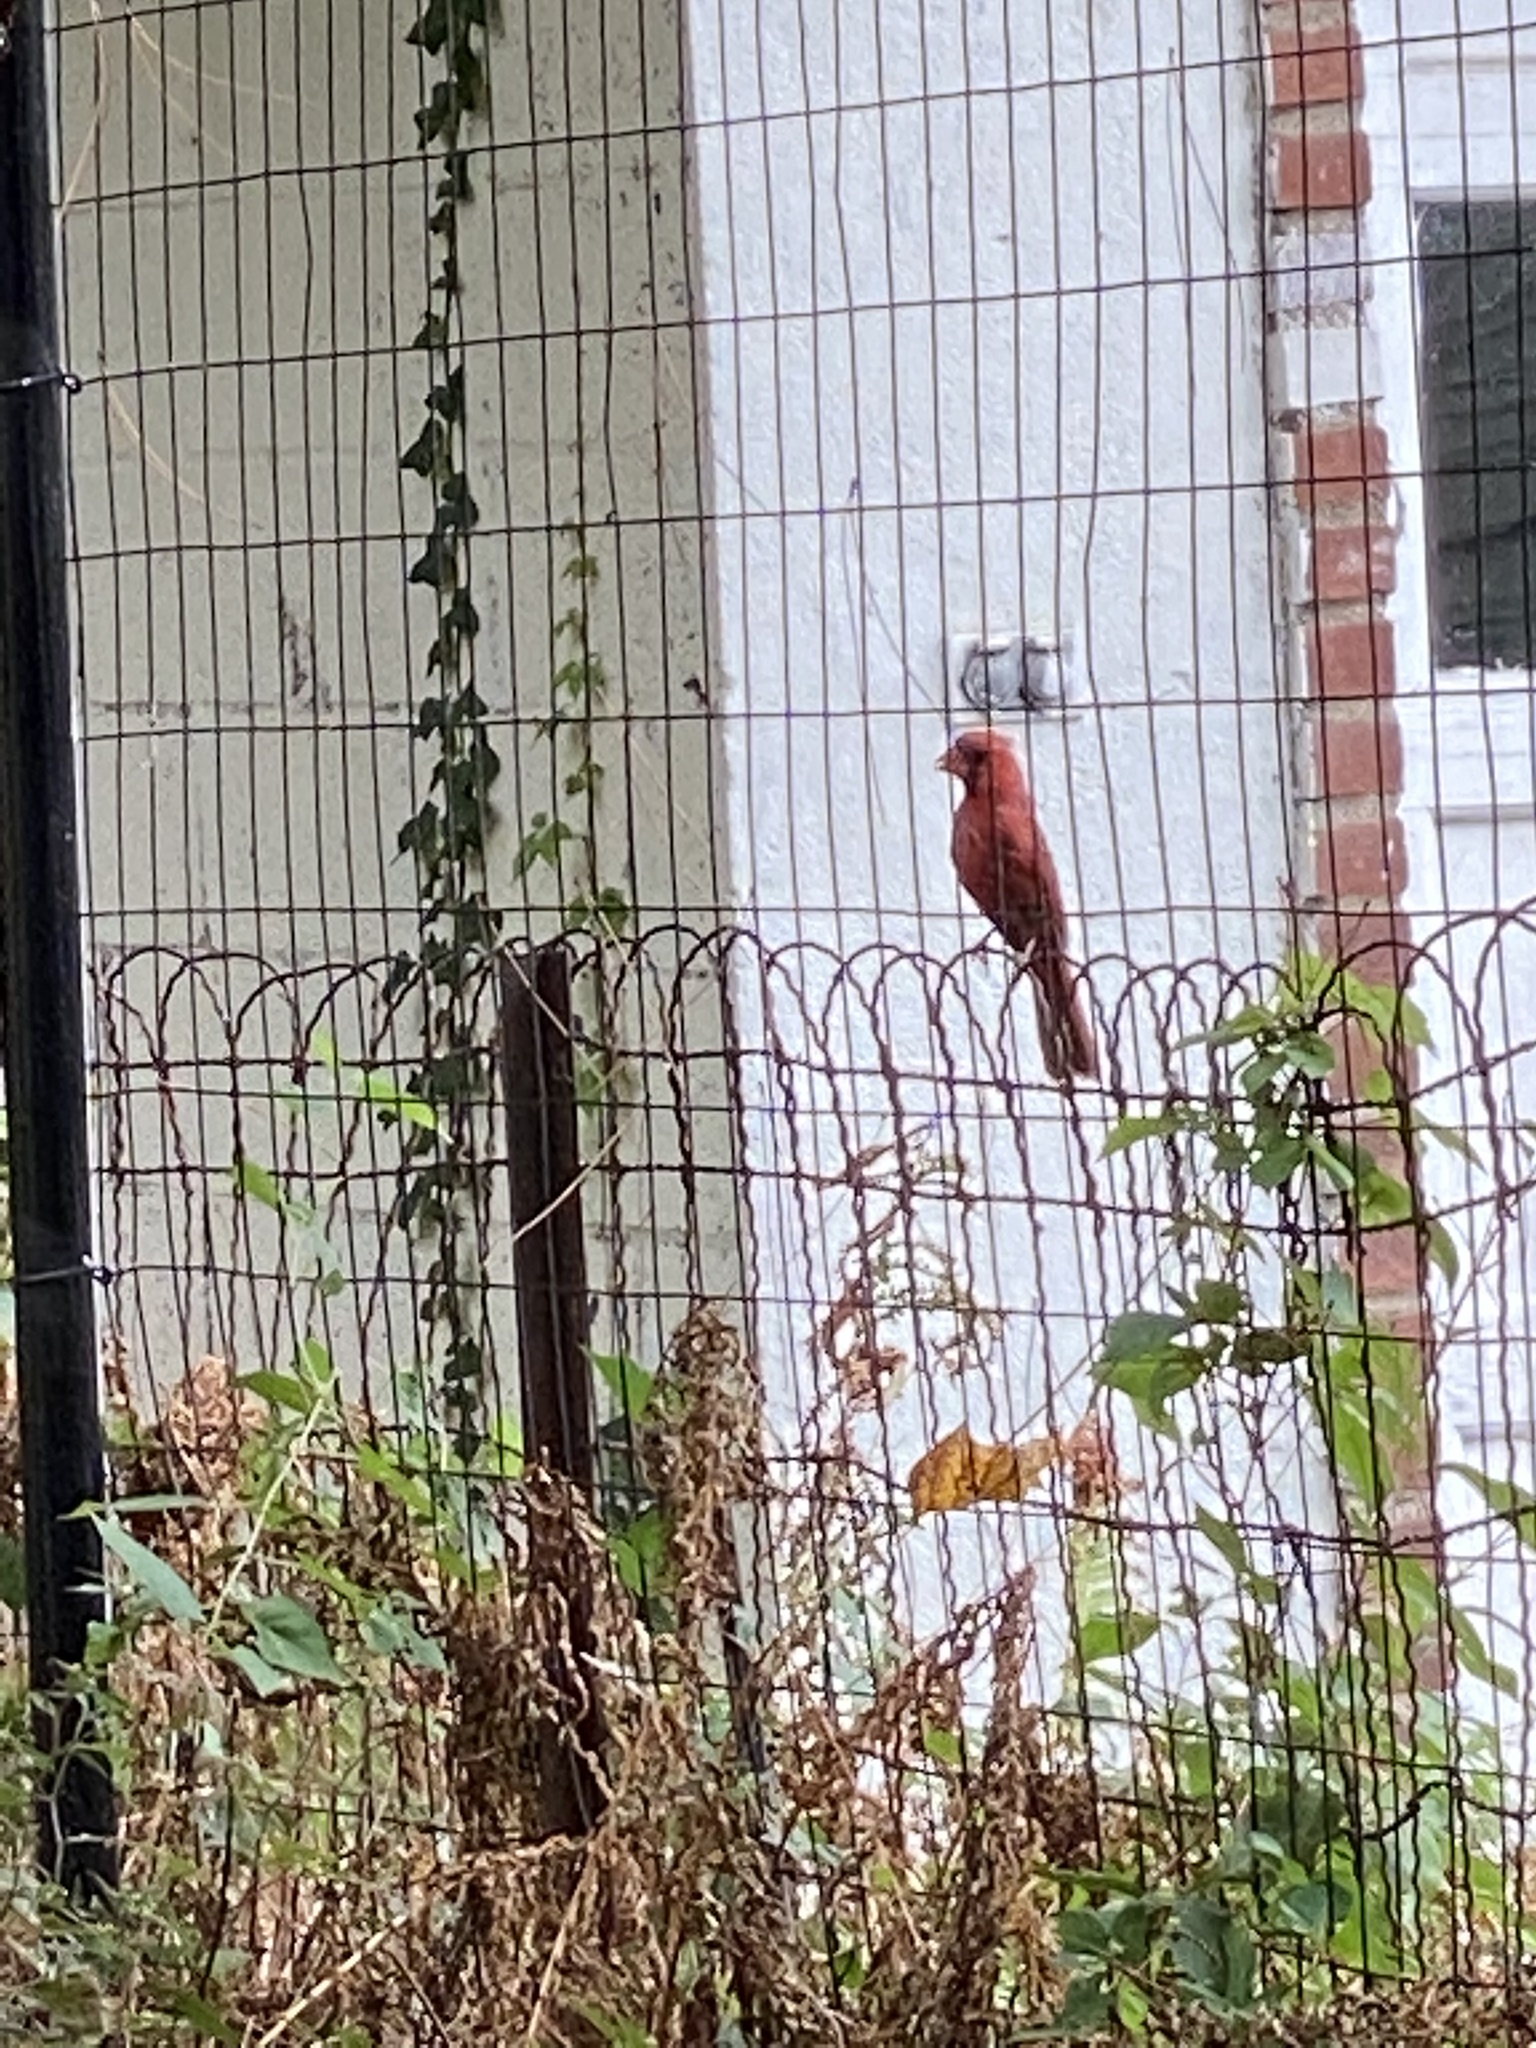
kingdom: Animalia
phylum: Chordata
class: Aves
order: Passeriformes
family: Cardinalidae
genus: Cardinalis
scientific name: Cardinalis cardinalis
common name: Northern cardinal
